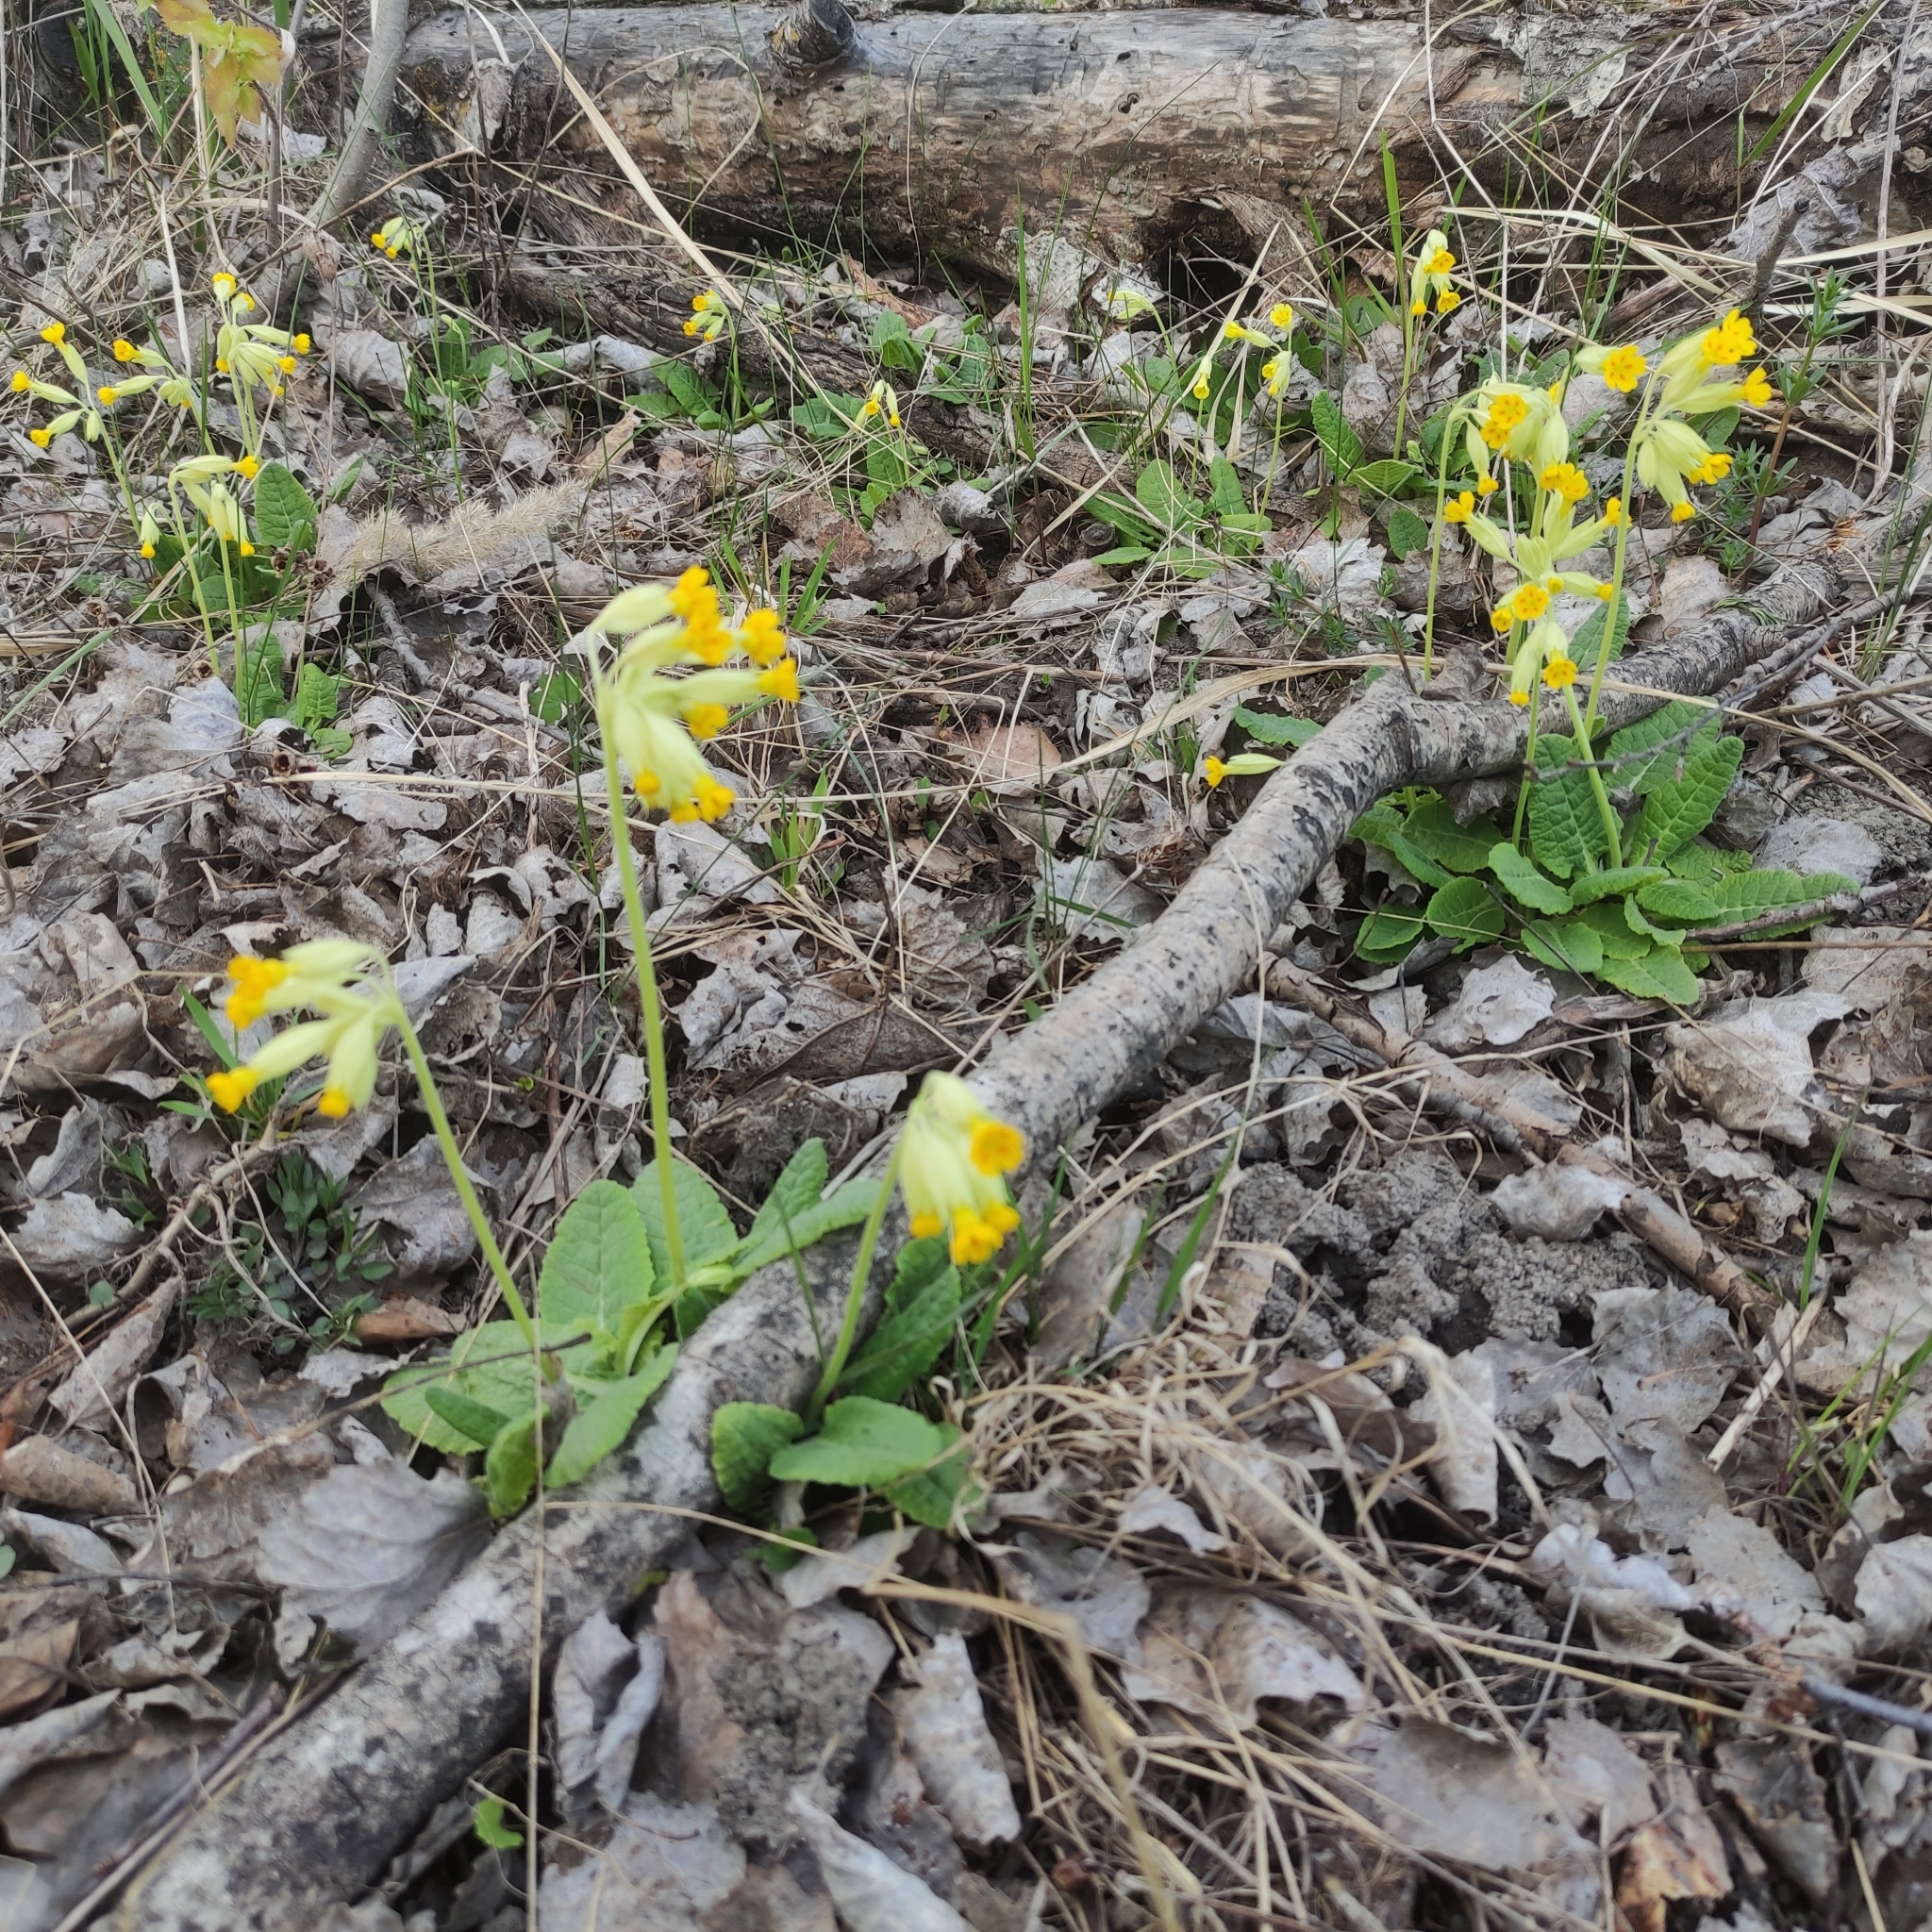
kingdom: Plantae
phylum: Tracheophyta
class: Magnoliopsida
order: Ericales
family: Primulaceae
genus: Primula
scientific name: Primula veris
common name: Cowslip
